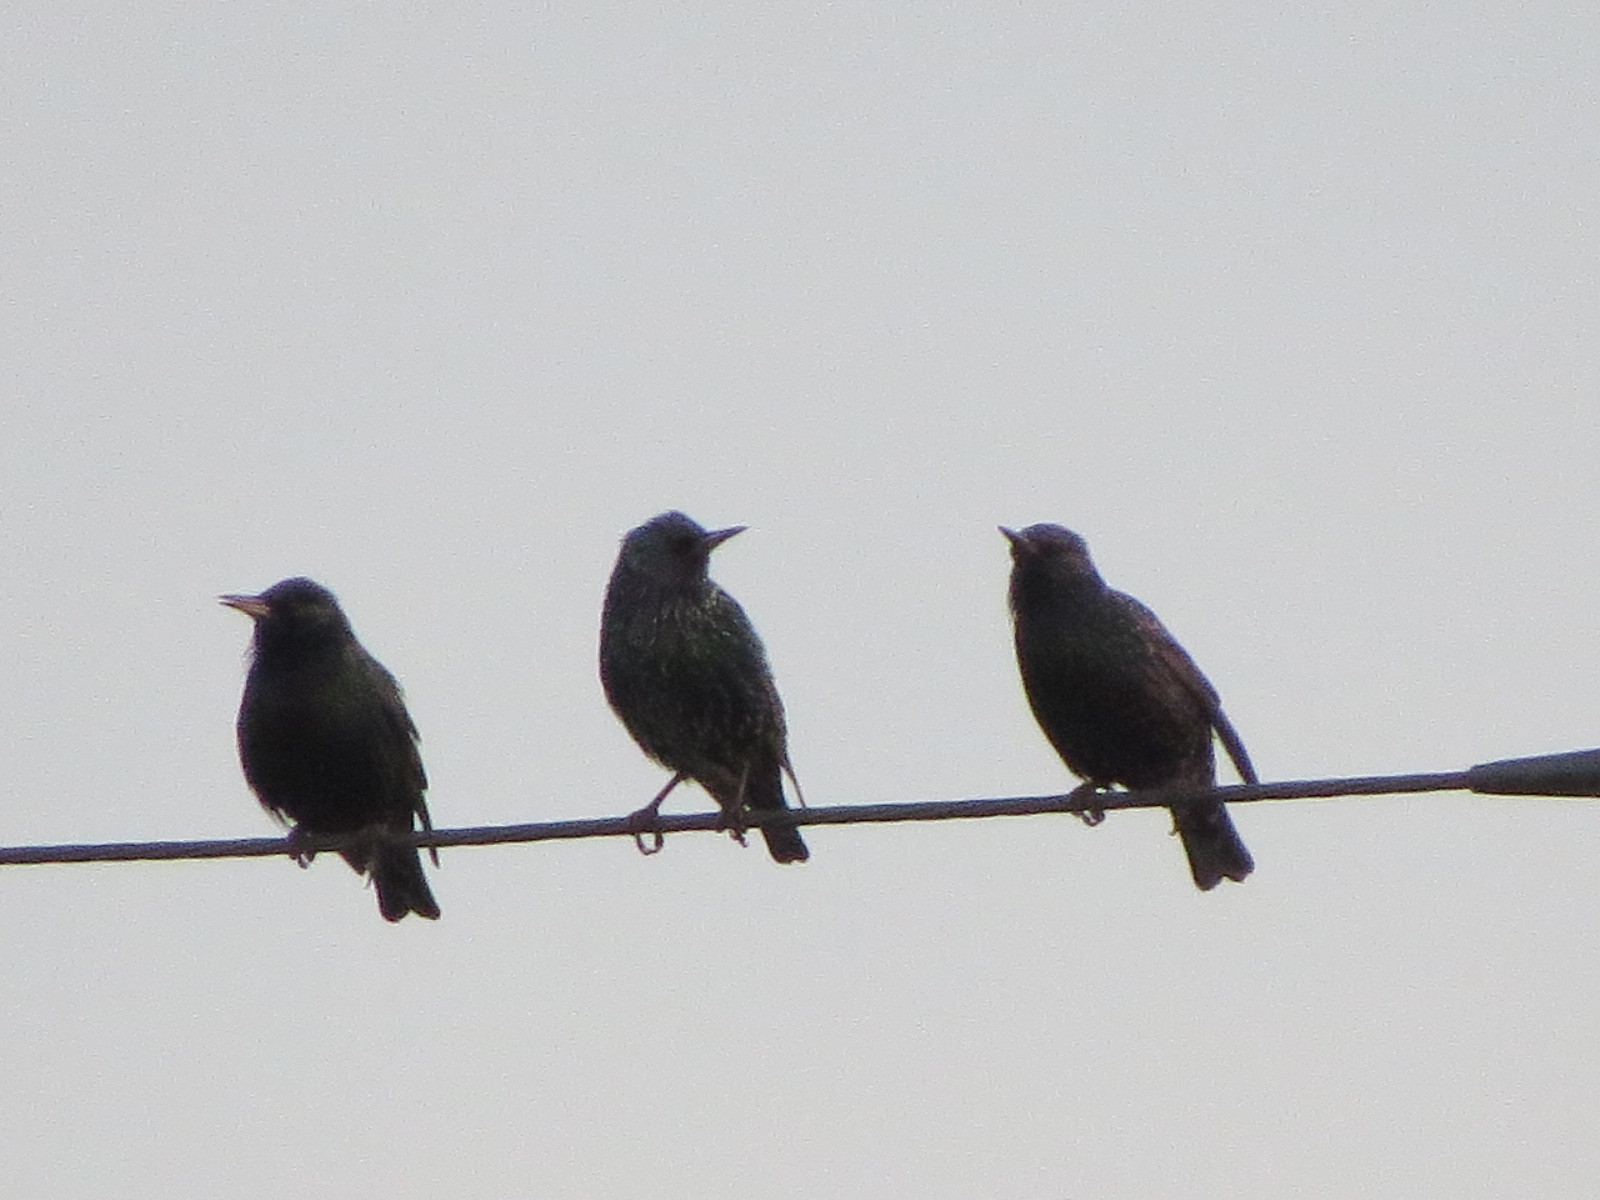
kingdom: Animalia
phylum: Chordata
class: Aves
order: Passeriformes
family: Sturnidae
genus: Sturnus
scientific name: Sturnus vulgaris
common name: Common starling
